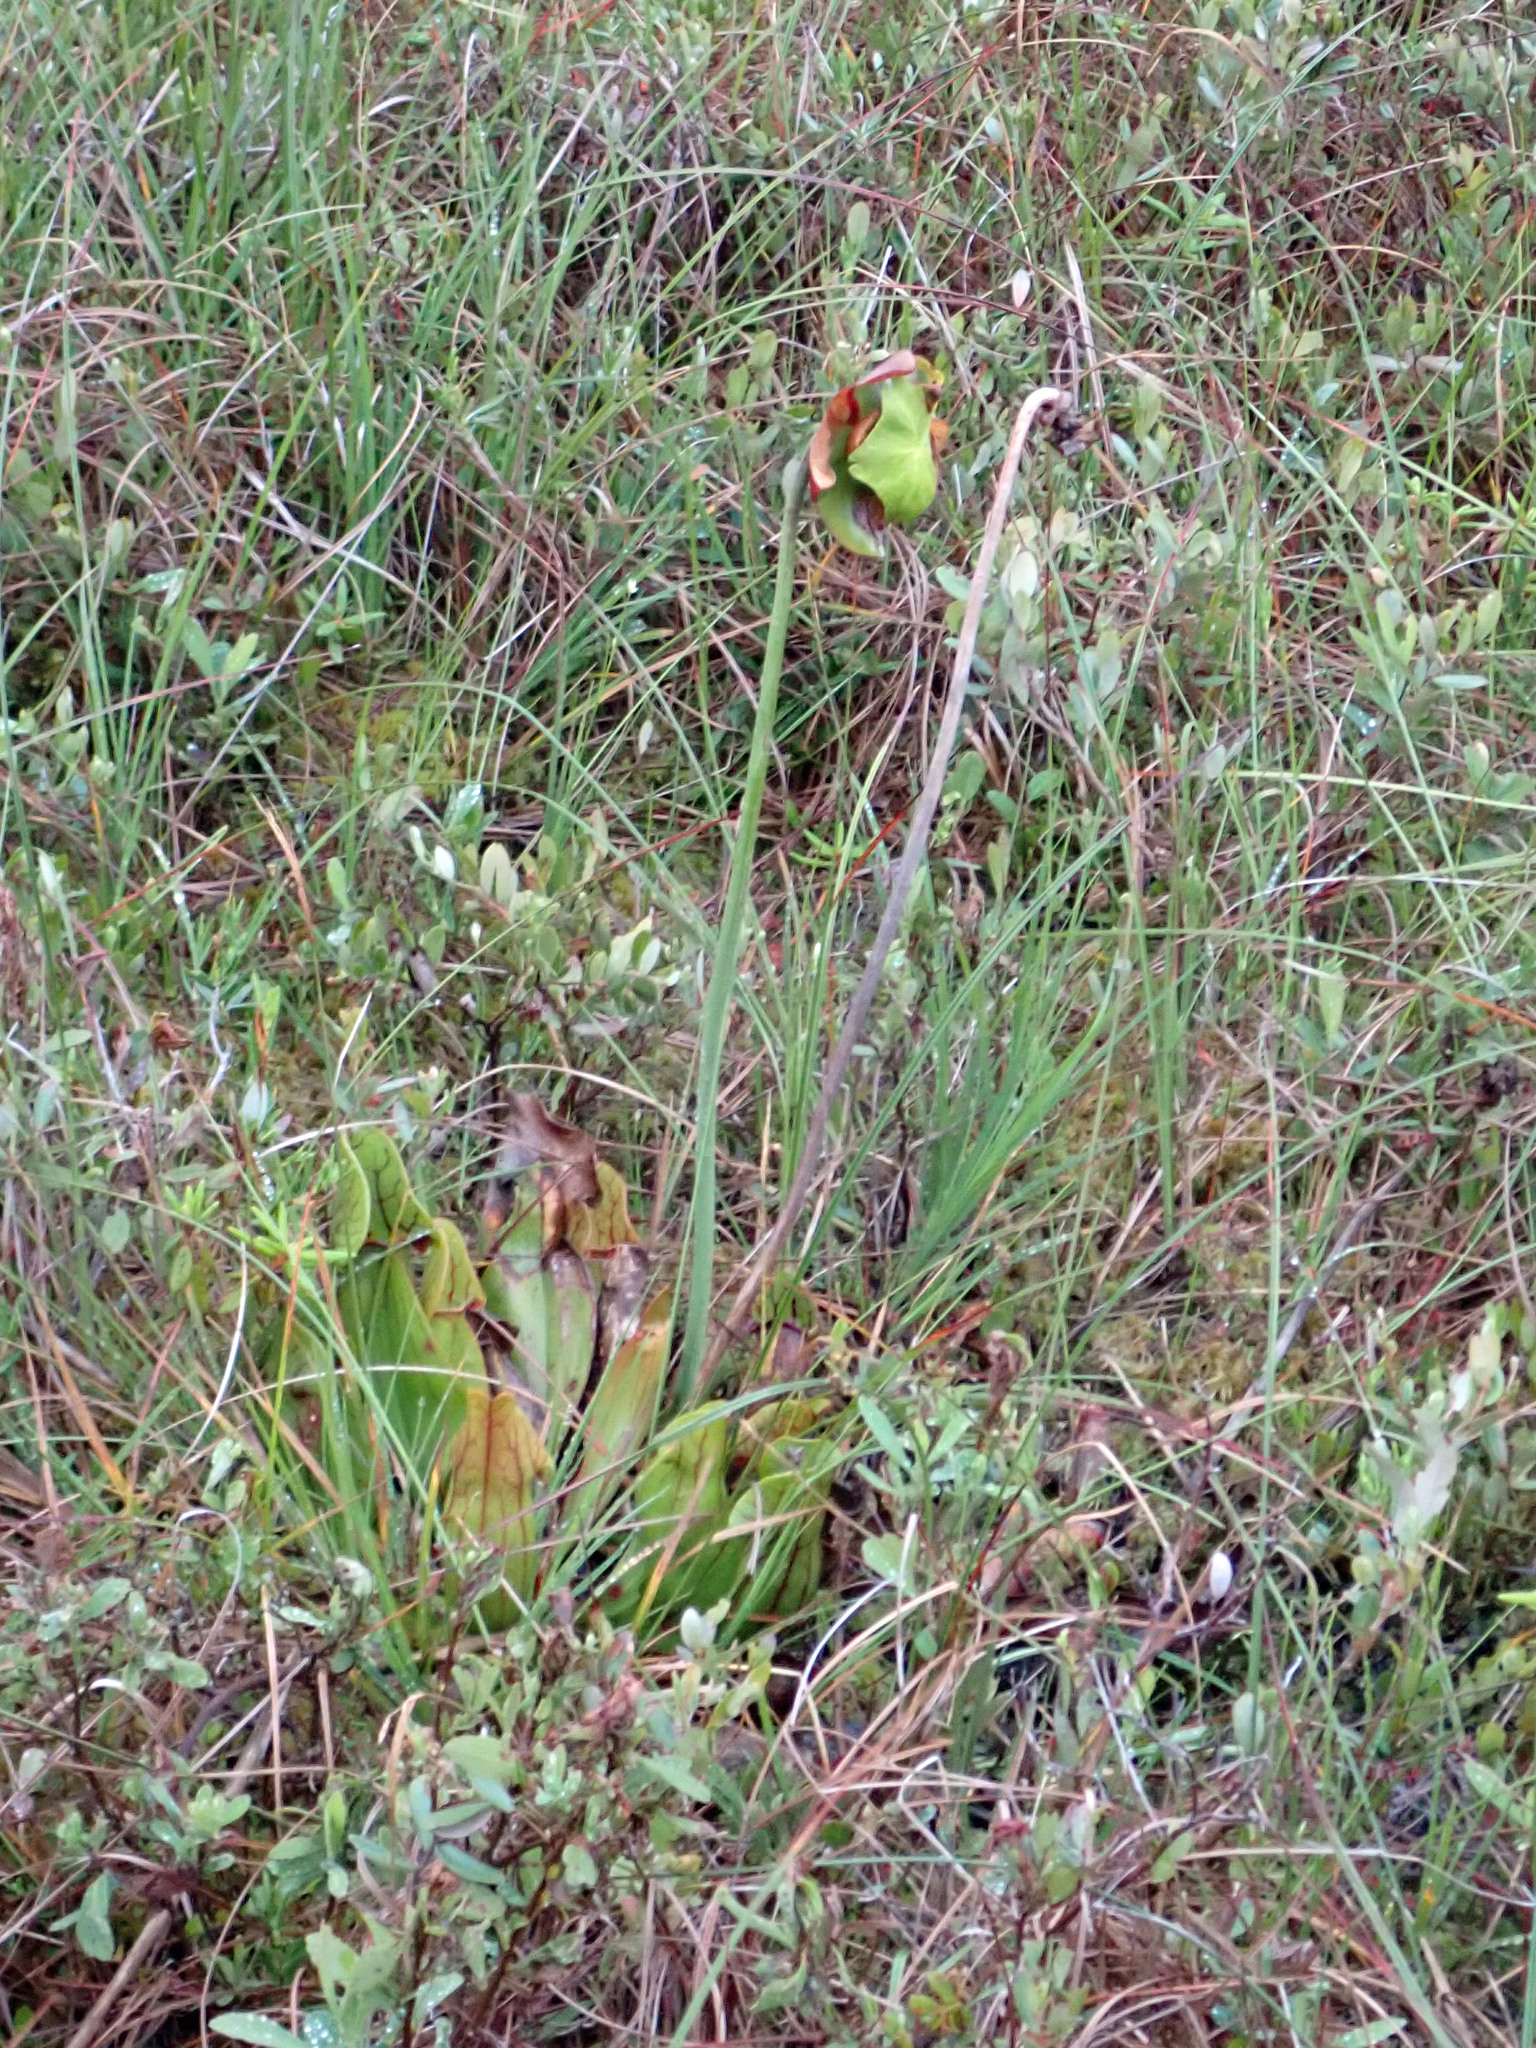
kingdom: Plantae
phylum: Tracheophyta
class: Magnoliopsida
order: Ericales
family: Sarraceniaceae
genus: Sarracenia
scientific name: Sarracenia purpurea
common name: Pitcherplant
